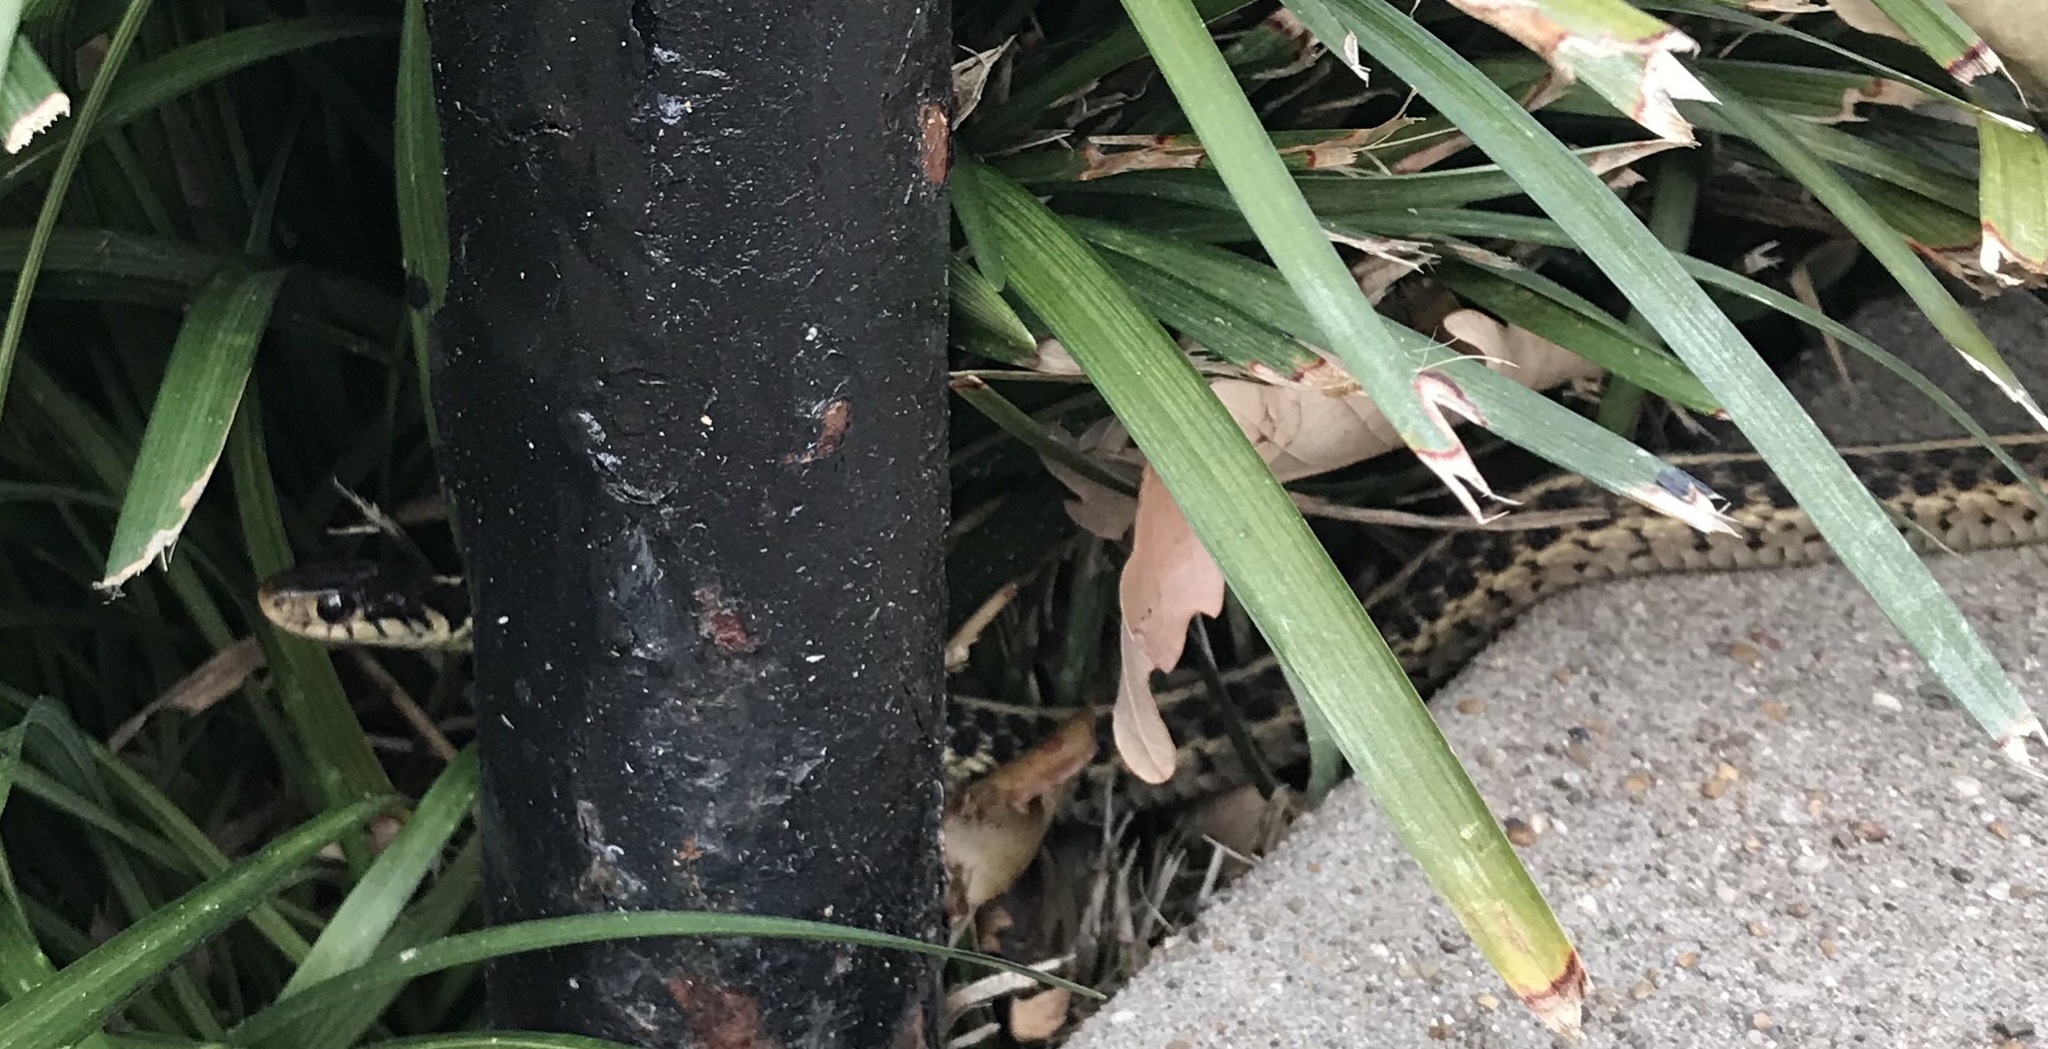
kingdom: Animalia
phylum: Chordata
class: Squamata
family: Colubridae
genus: Thamnophis
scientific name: Thamnophis sirtalis
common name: Common garter snake
